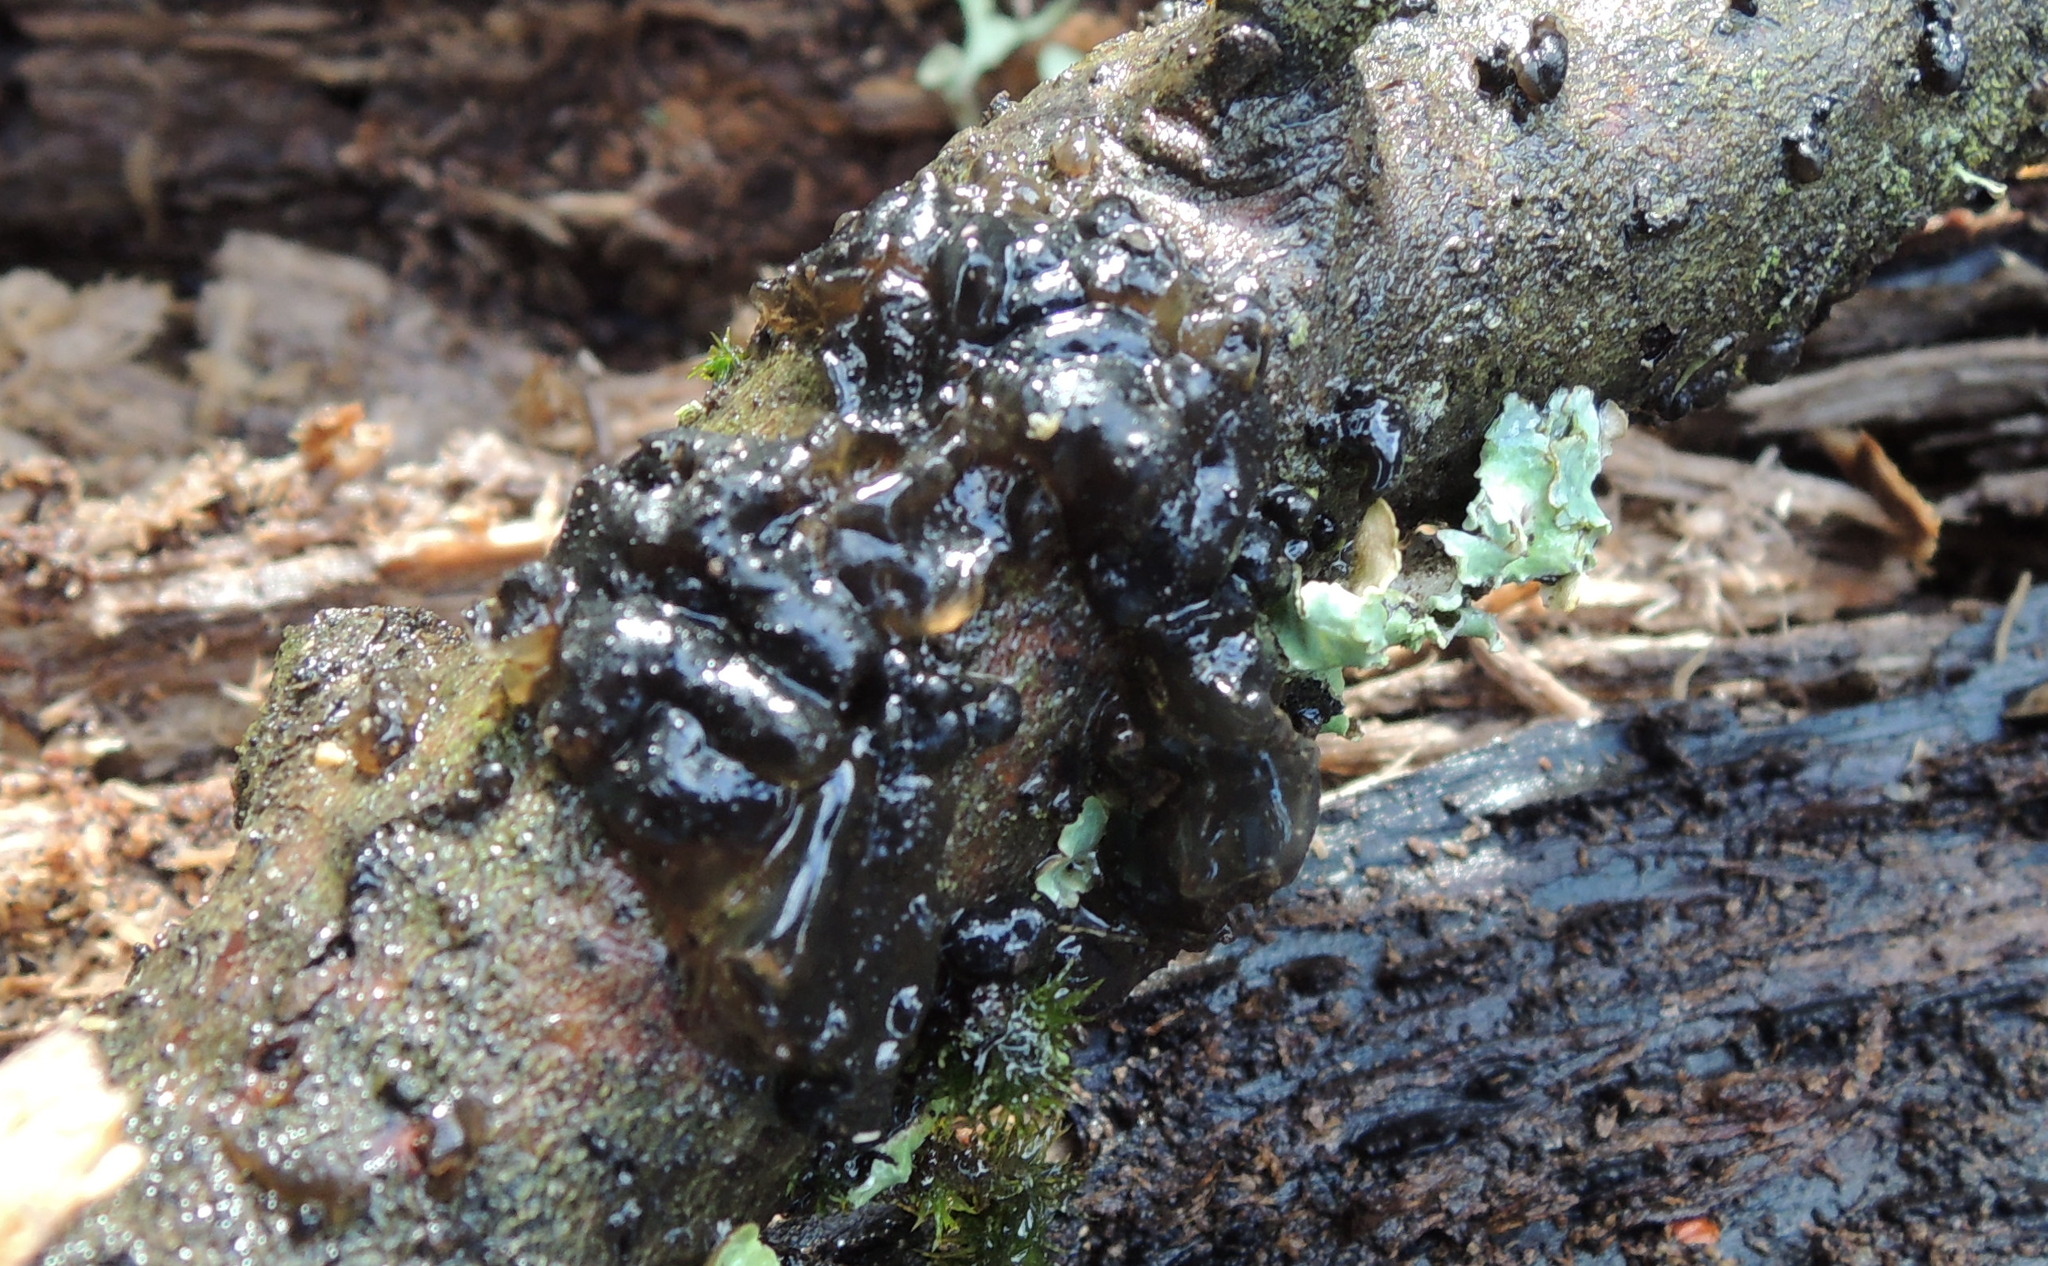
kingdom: Fungi
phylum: Basidiomycota
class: Agaricomycetes
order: Auriculariales
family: Auriculariaceae
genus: Exidia
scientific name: Exidia glandulosa
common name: Witches' butter
